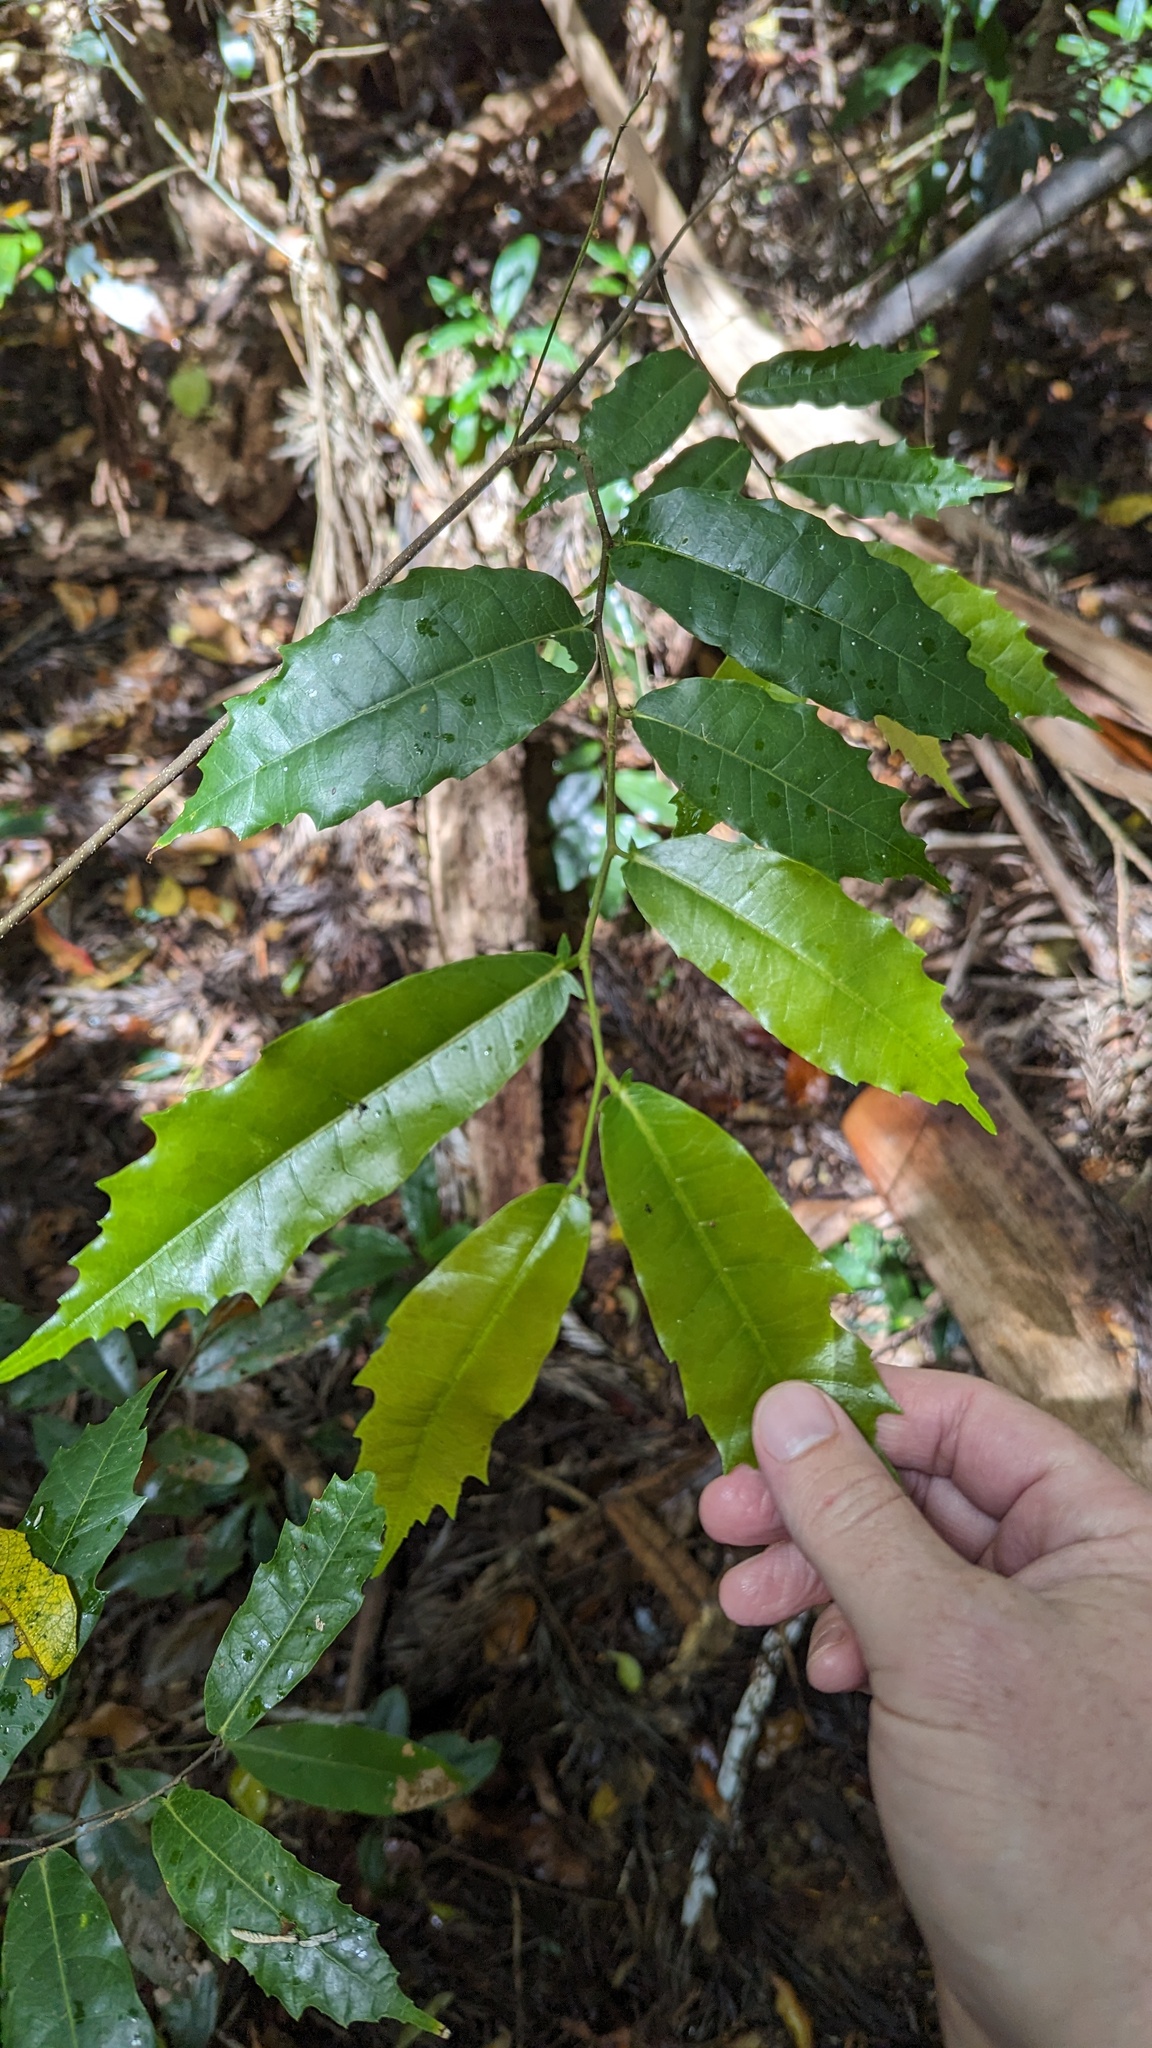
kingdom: Plantae
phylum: Tracheophyta
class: Magnoliopsida
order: Rosales
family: Moraceae
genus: Malaisia
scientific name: Malaisia scandens
